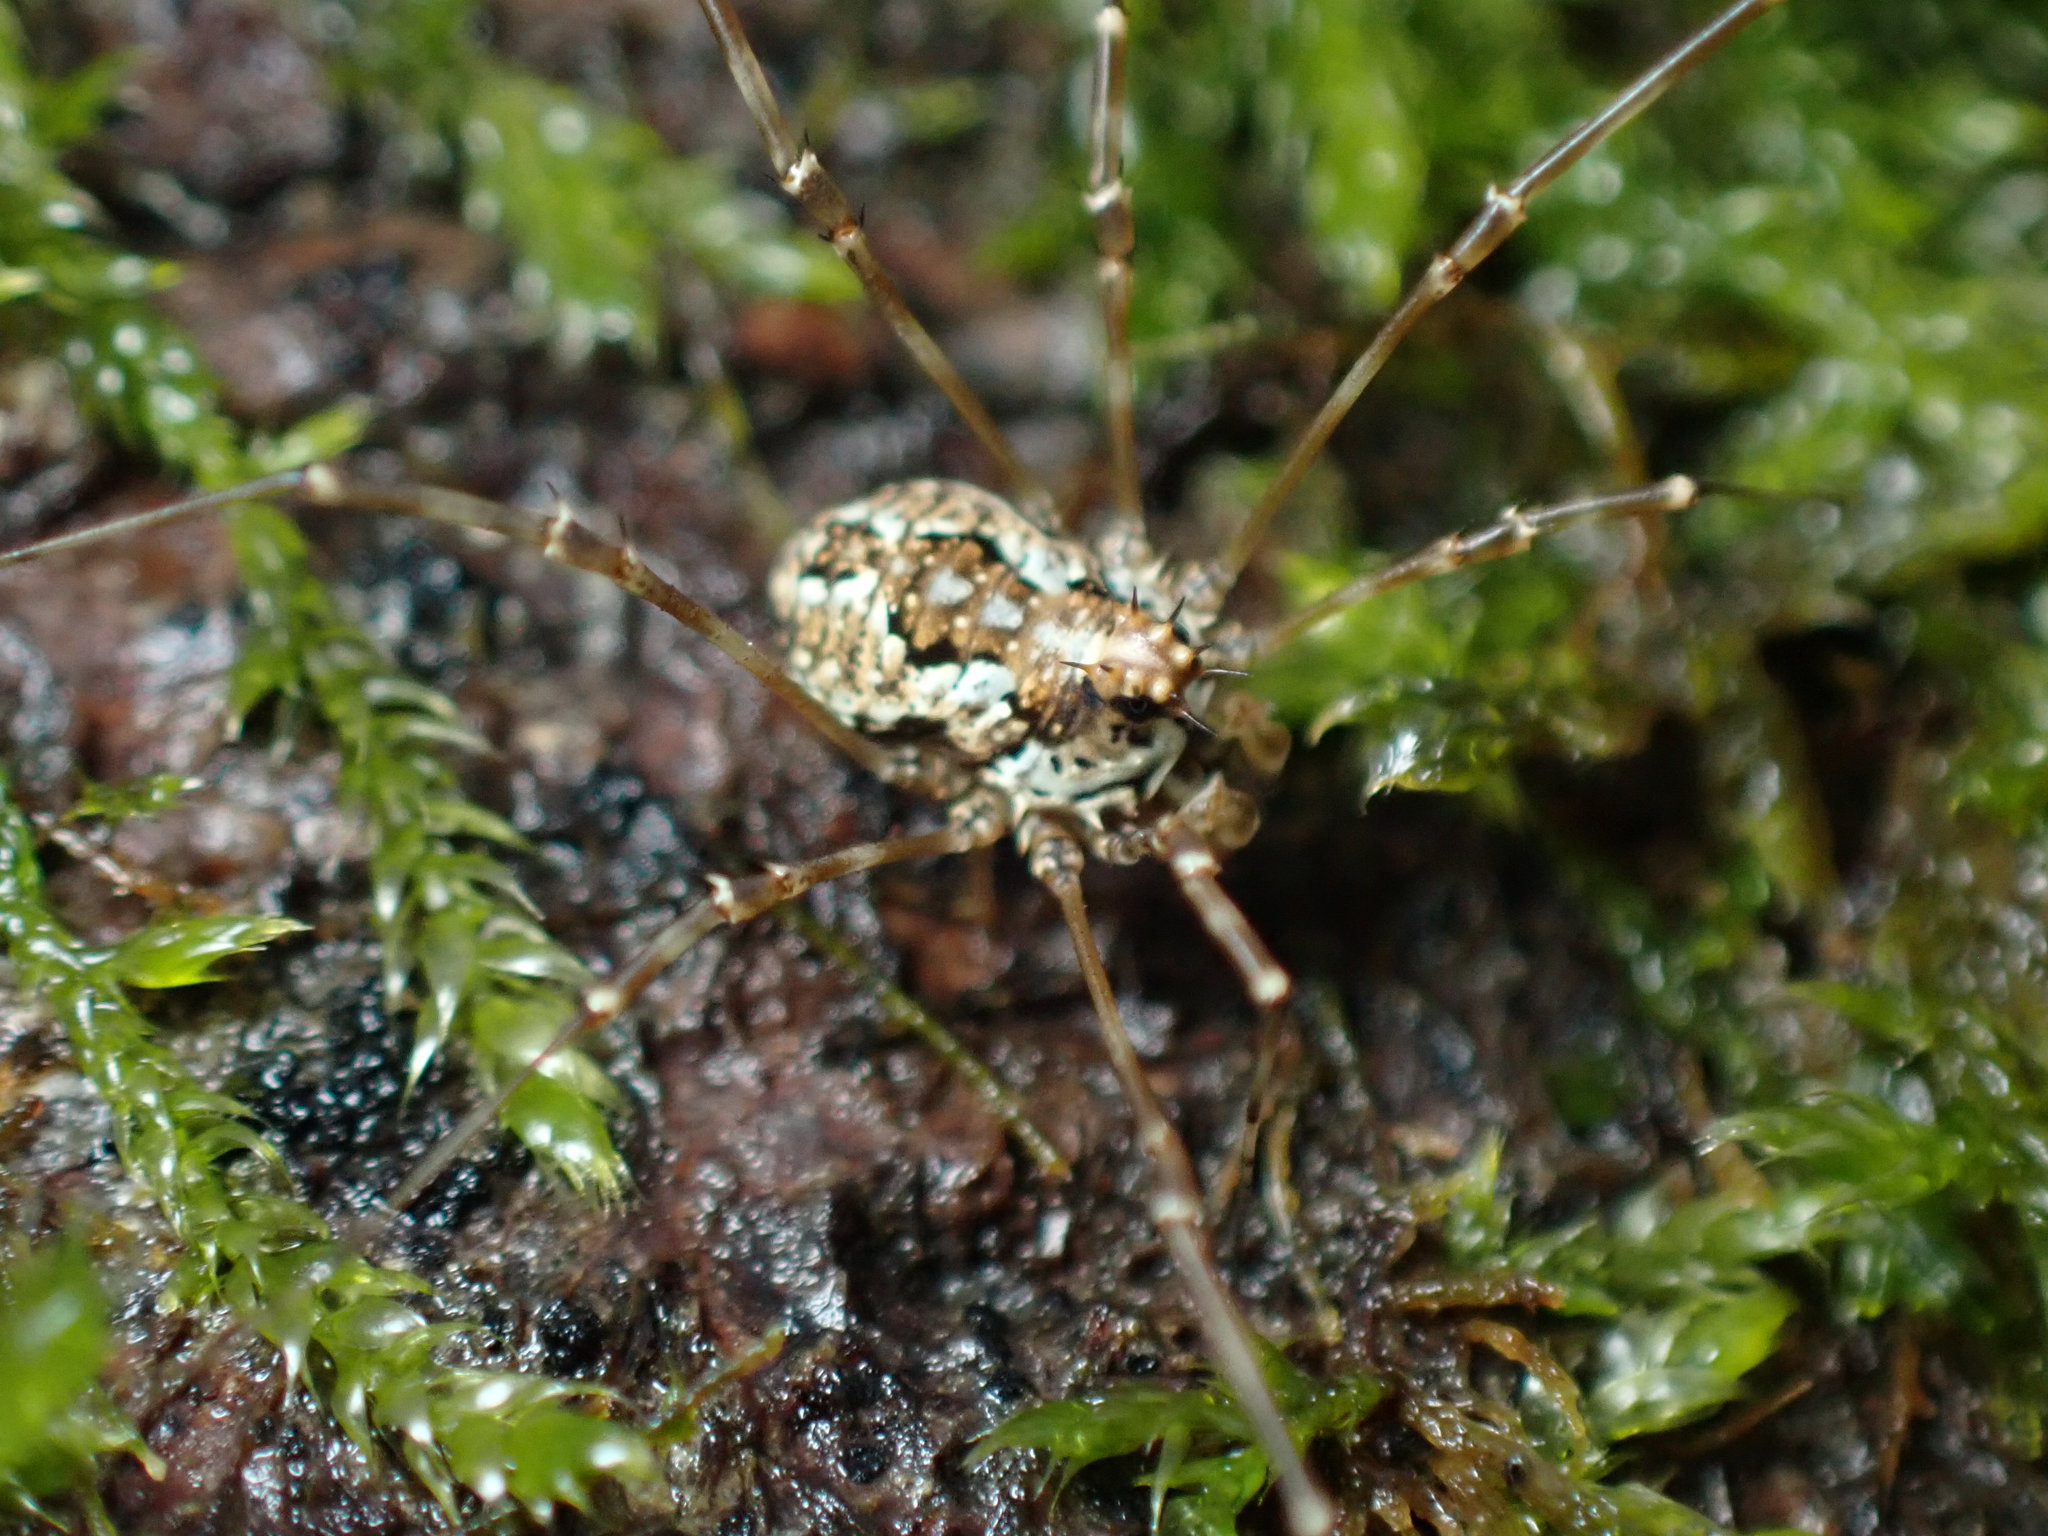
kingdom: Animalia
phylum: Arthropoda
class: Arachnida
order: Opiliones
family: Phalangiidae
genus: Megabunus
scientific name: Megabunus diadema
